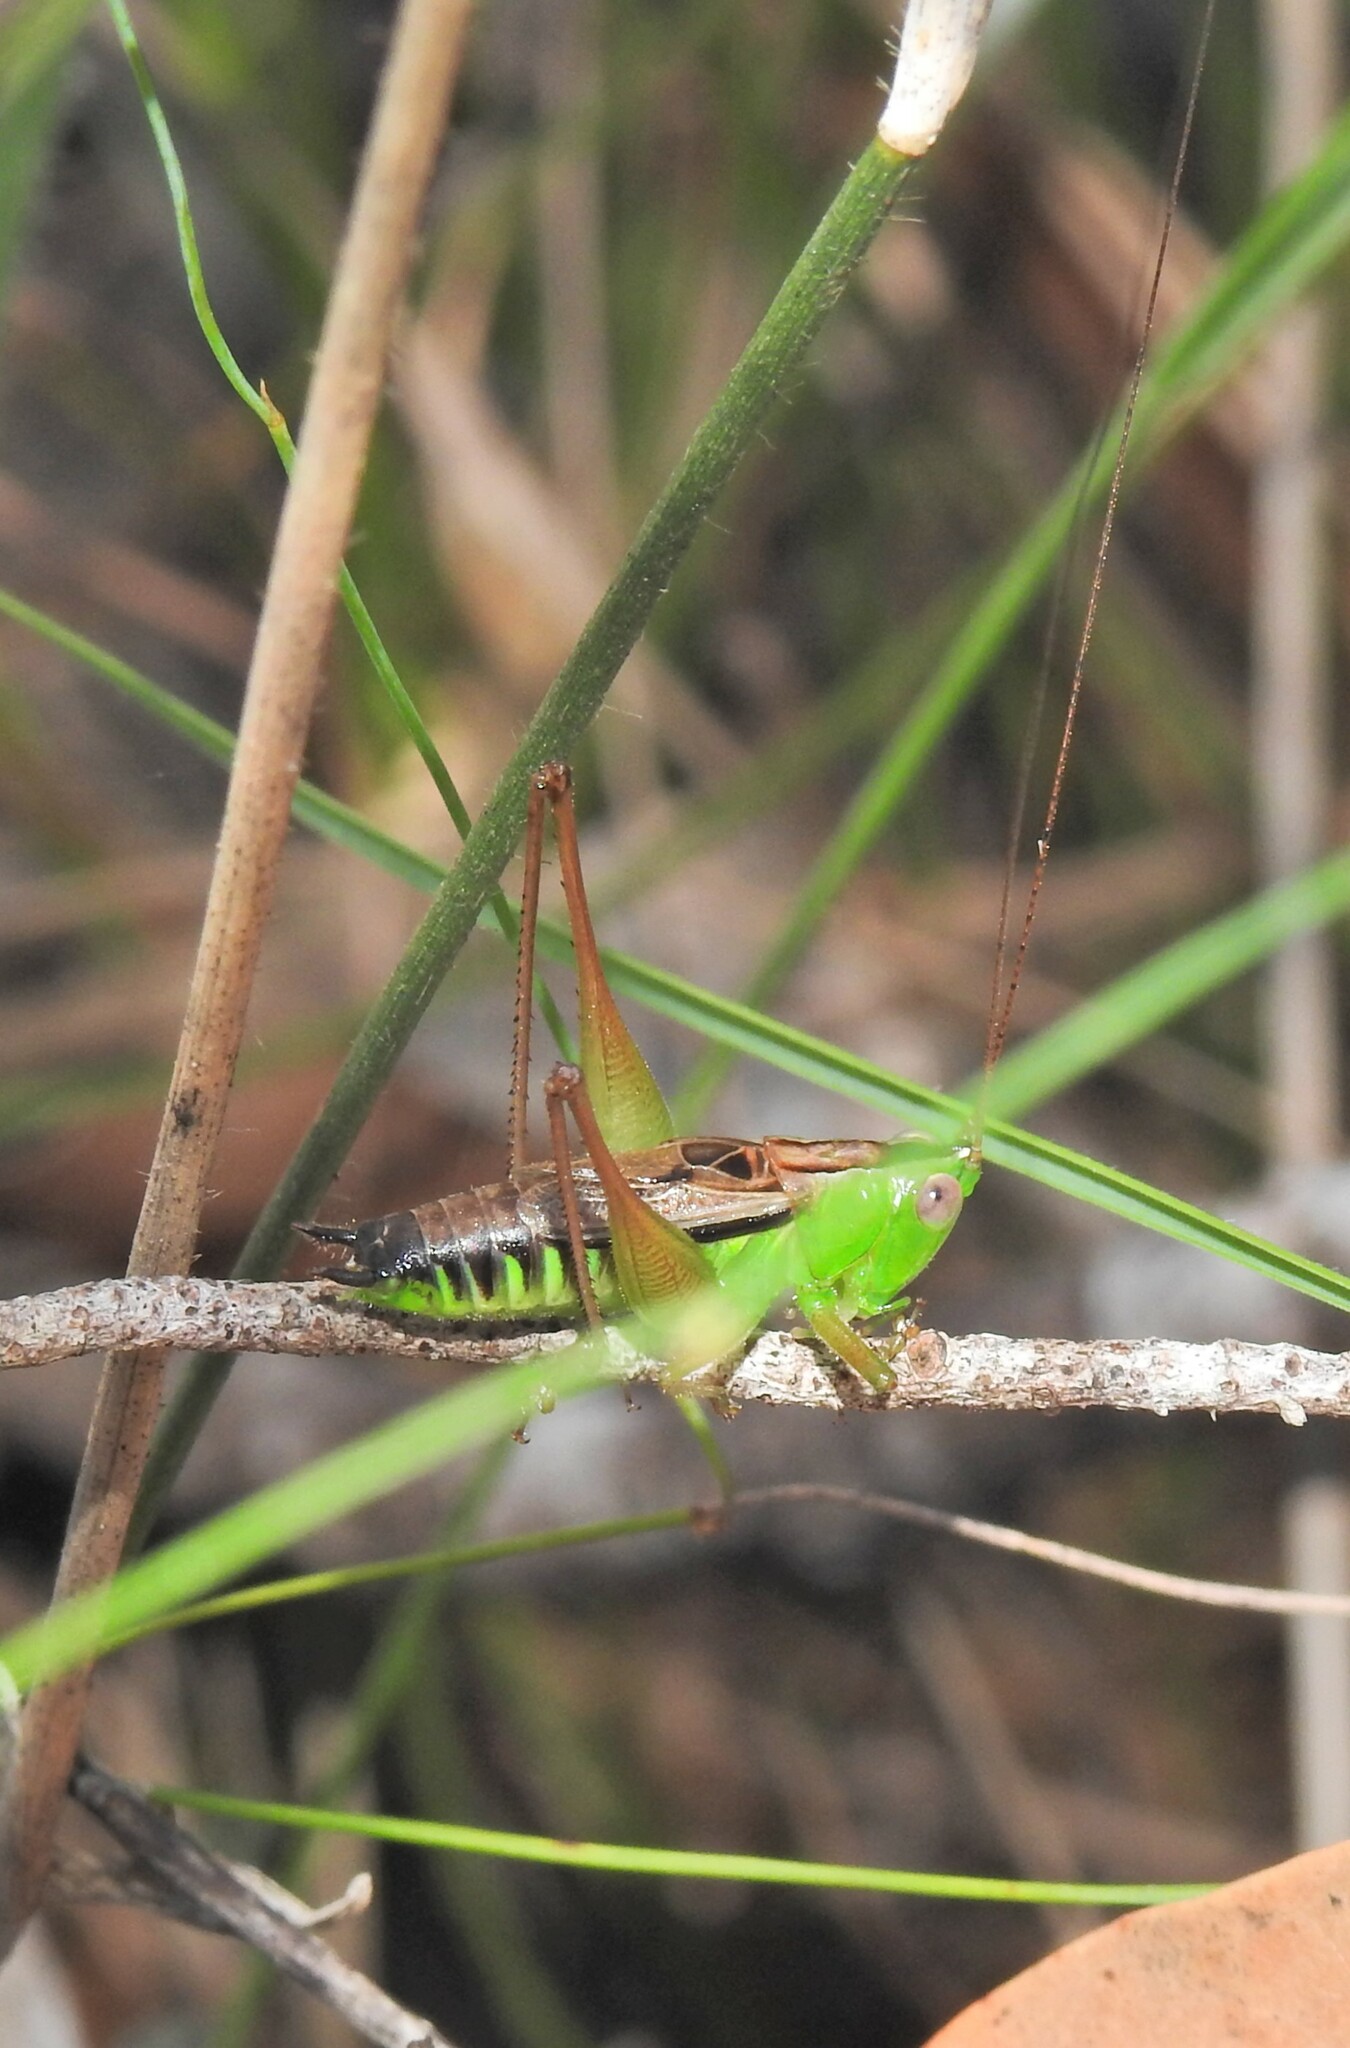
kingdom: Animalia
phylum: Arthropoda
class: Insecta
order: Orthoptera
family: Tettigoniidae
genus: Conocephalus
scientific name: Conocephalus semivittatus
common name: Blackish meadow katydid
